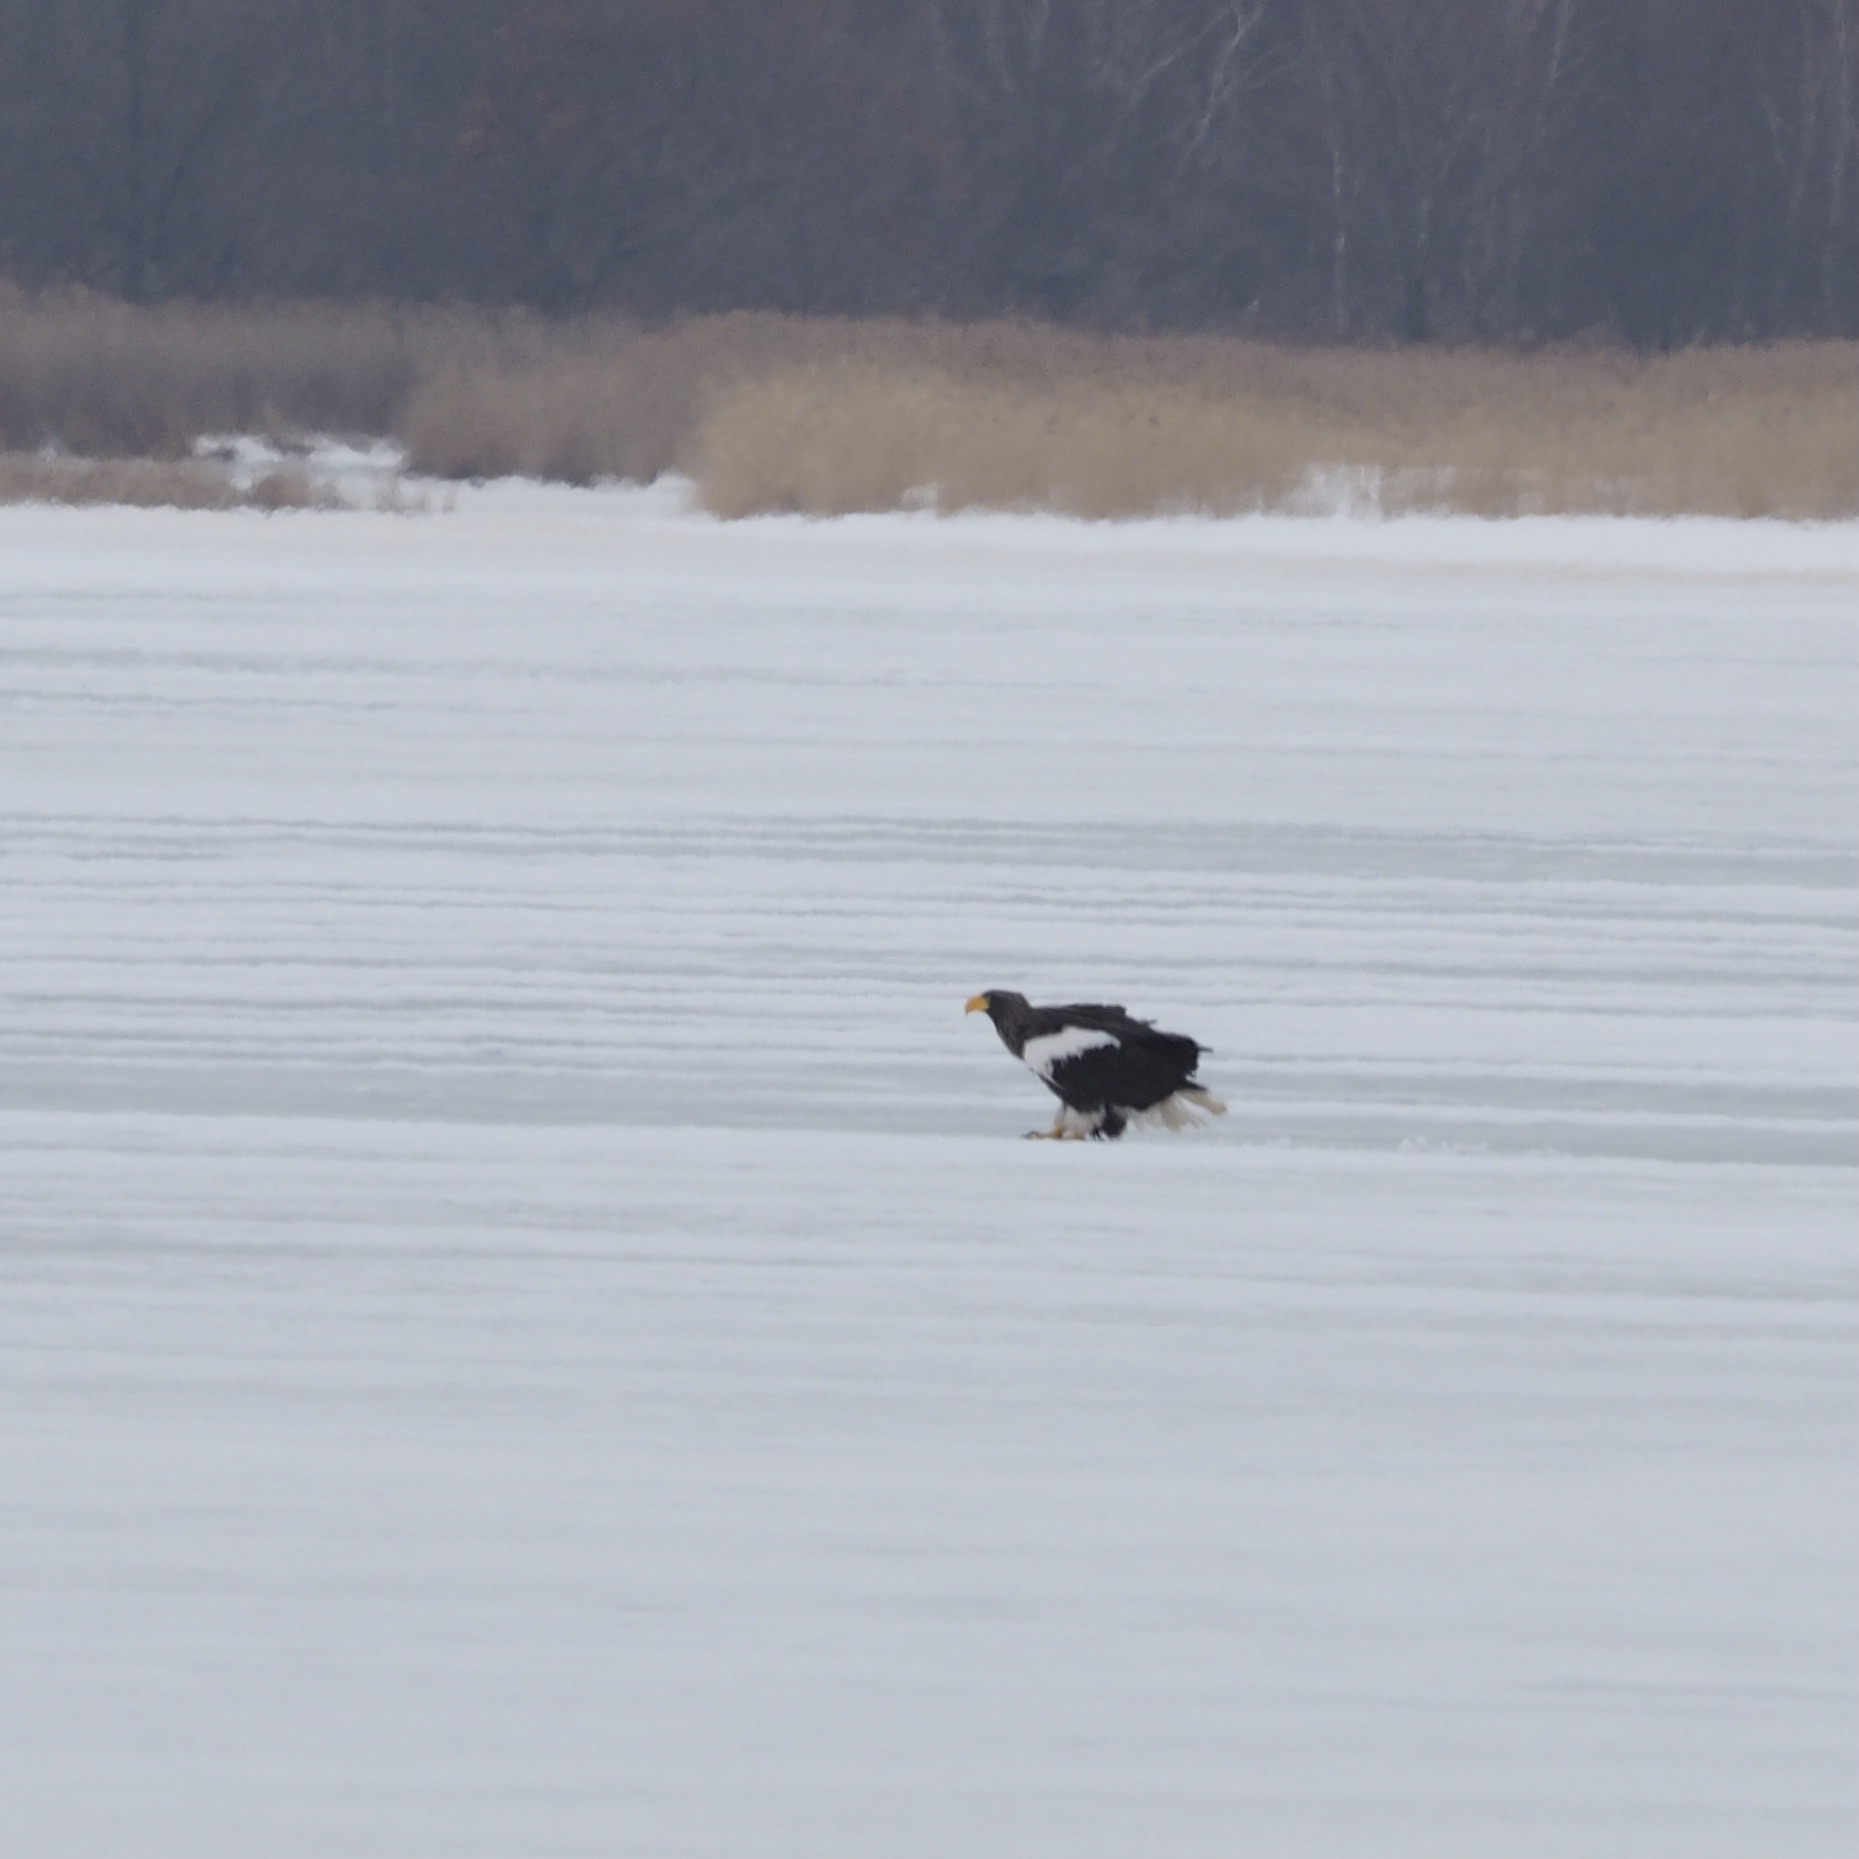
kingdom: Animalia
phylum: Chordata
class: Aves
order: Accipitriformes
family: Accipitridae
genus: Haliaeetus
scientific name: Haliaeetus pelagicus
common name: Steller's sea eagle
